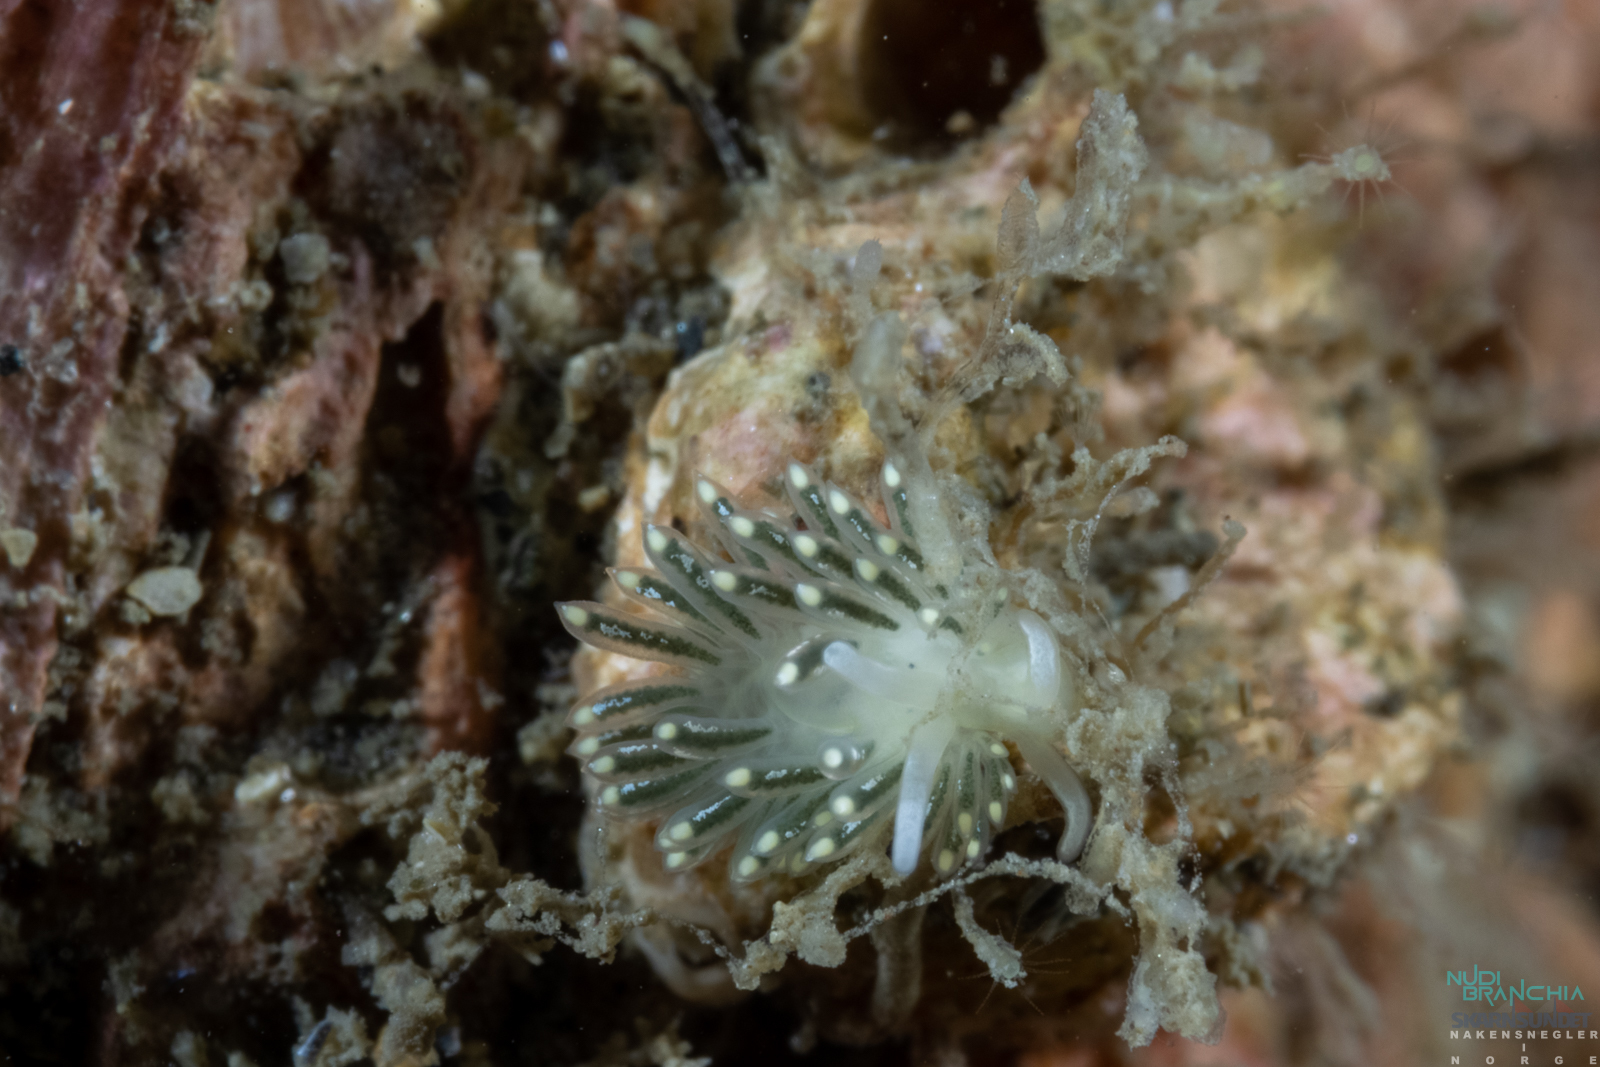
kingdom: Animalia
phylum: Mollusca
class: Gastropoda
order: Nudibranchia
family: Trinchesiidae
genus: Diaphoreolis
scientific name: Diaphoreolis viridis
